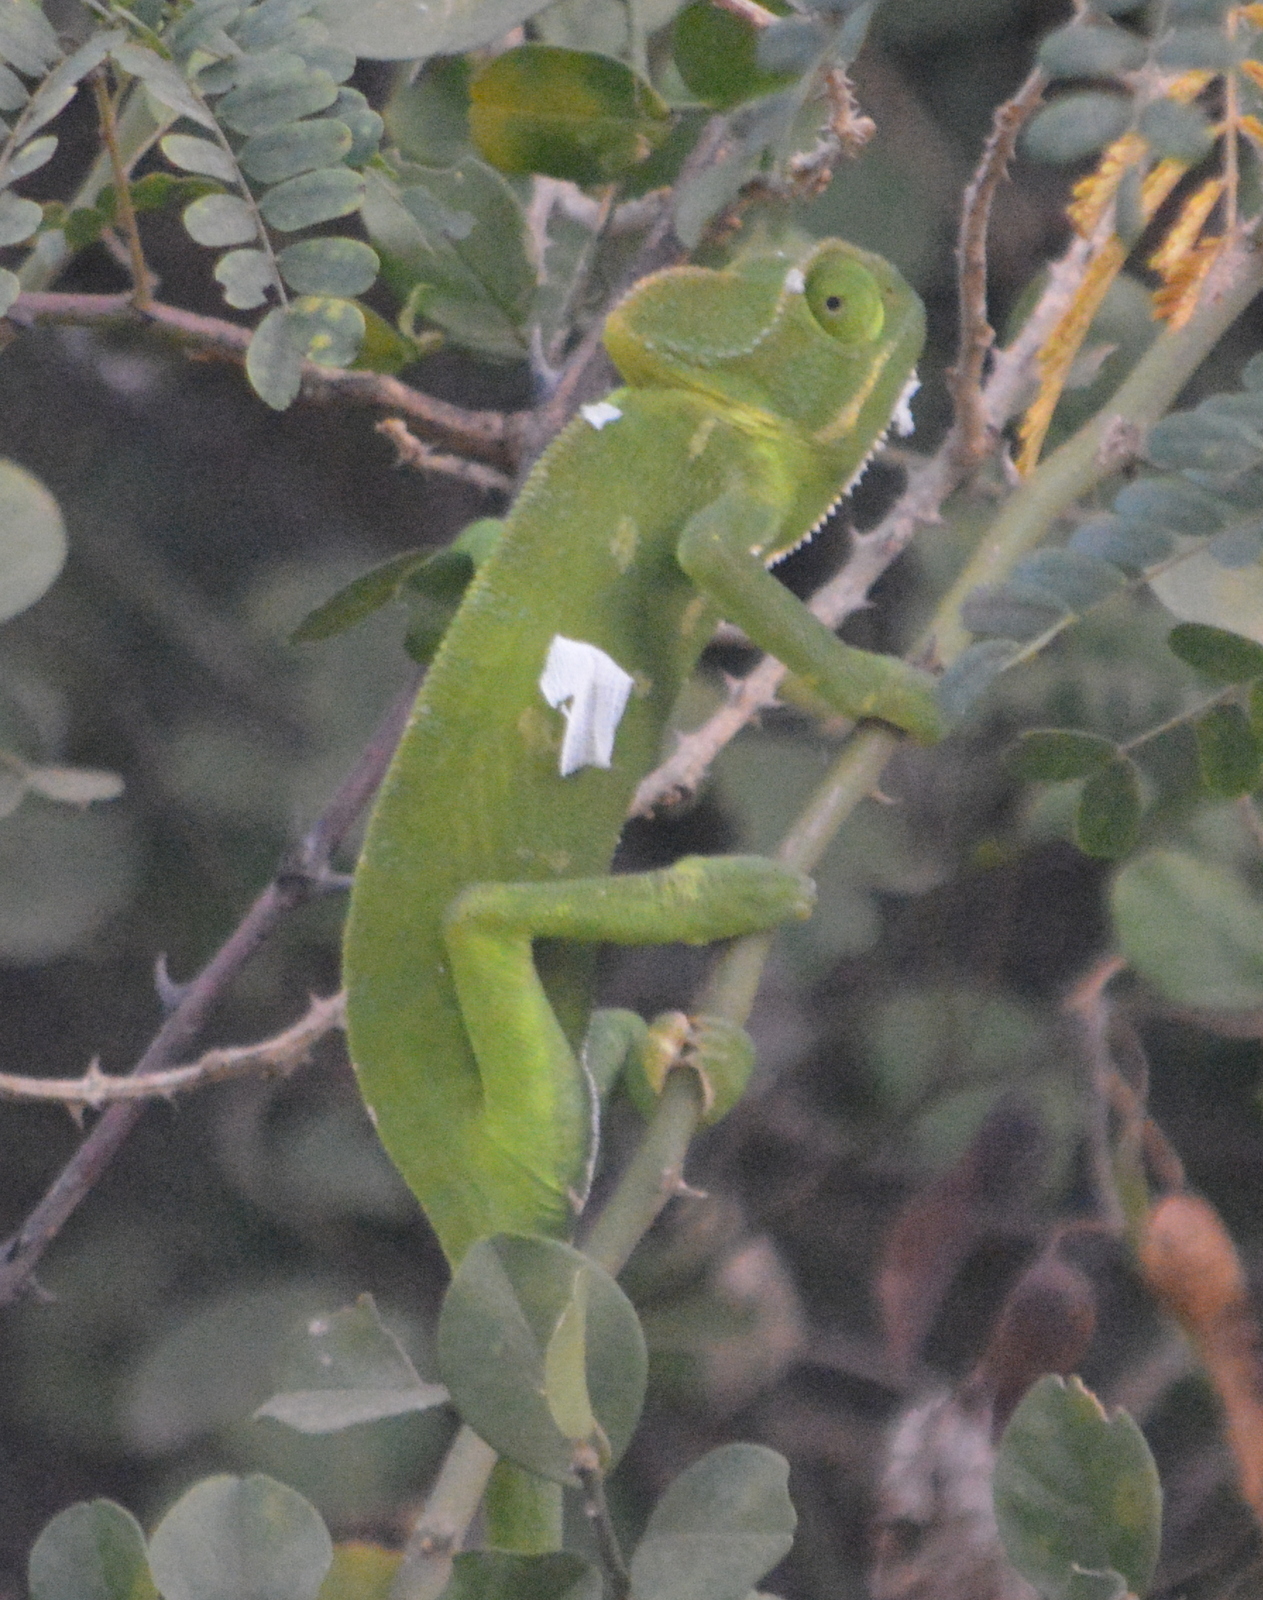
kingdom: Animalia
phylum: Chordata
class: Squamata
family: Chamaeleonidae
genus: Chamaeleo
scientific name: Chamaeleo zeylanicus
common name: Indian chameleon
